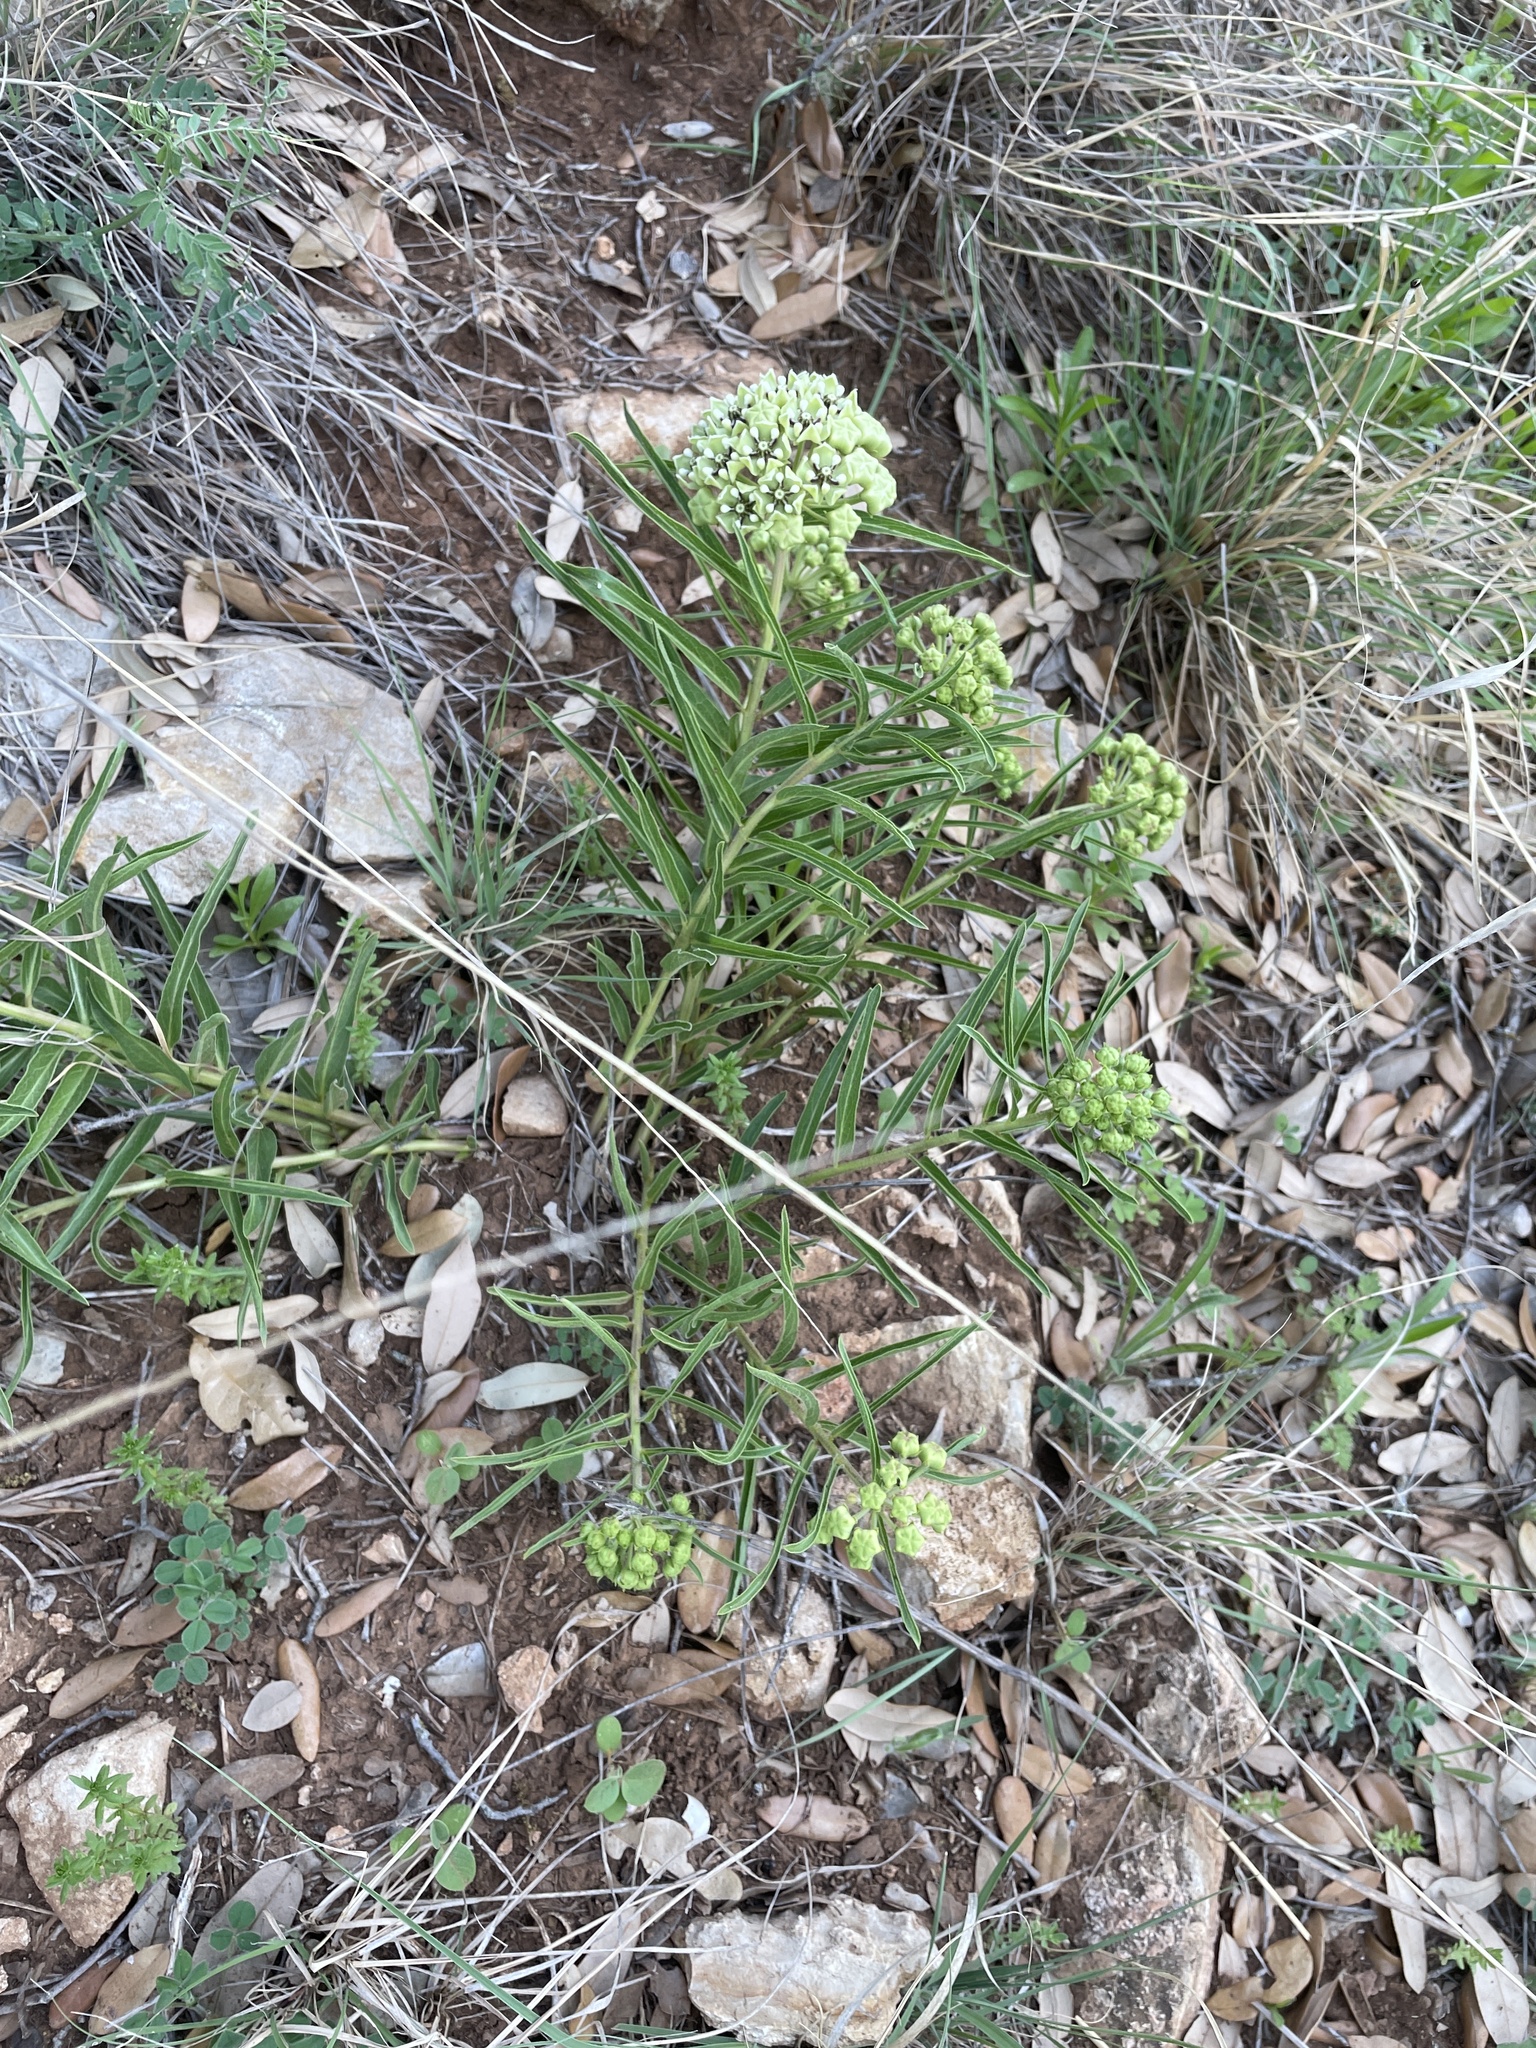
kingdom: Plantae
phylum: Tracheophyta
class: Magnoliopsida
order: Gentianales
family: Apocynaceae
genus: Asclepias
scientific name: Asclepias asperula
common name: Antelope horns
